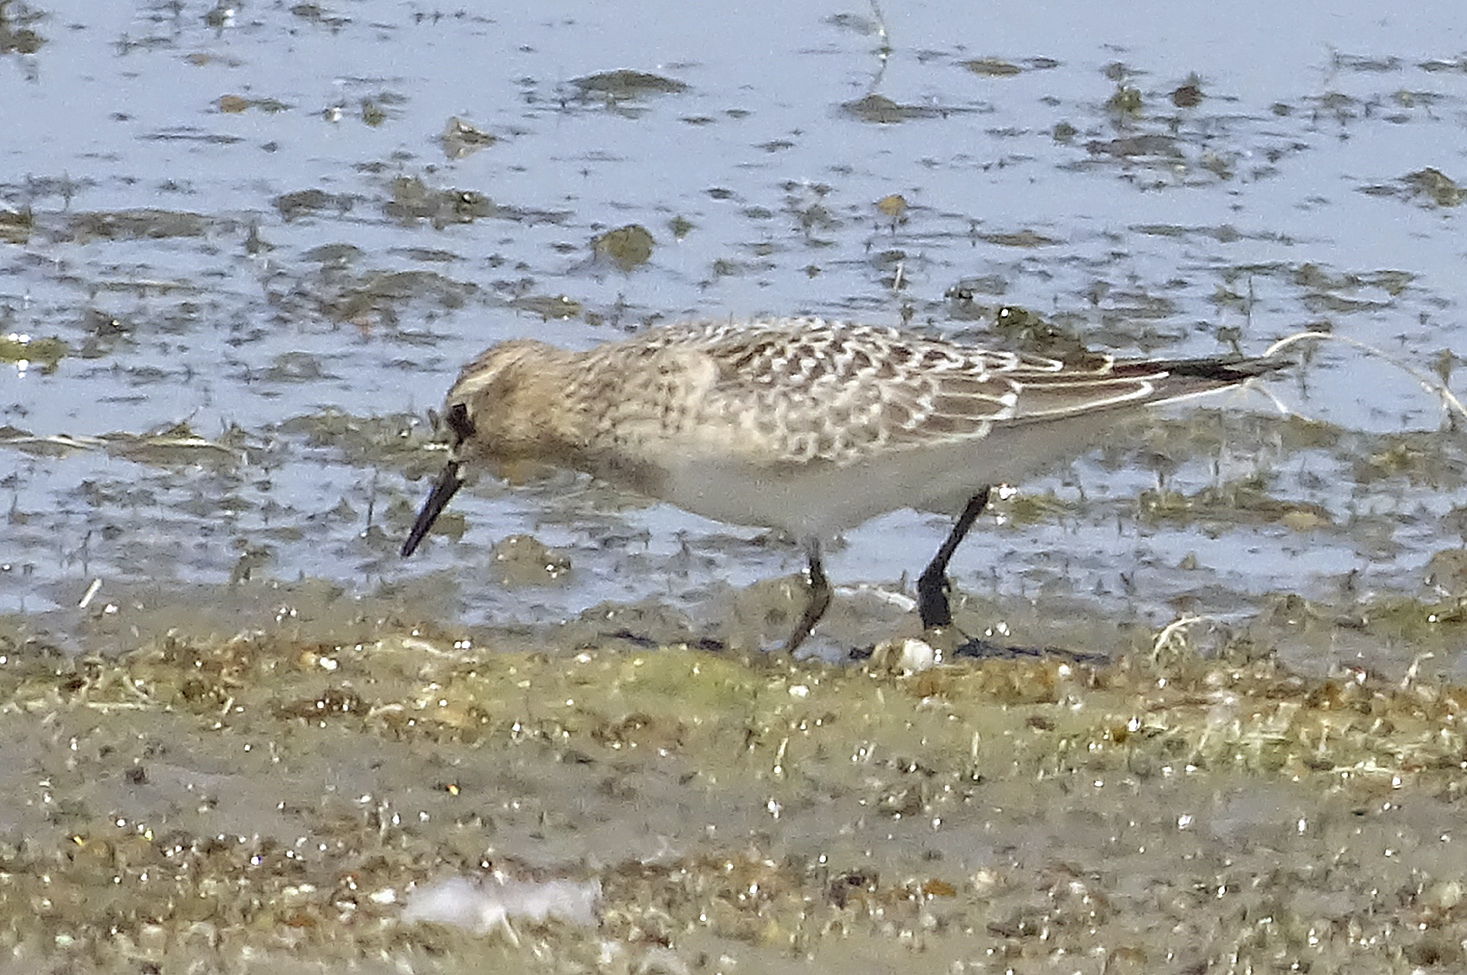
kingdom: Animalia
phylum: Chordata
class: Aves
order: Charadriiformes
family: Scolopacidae
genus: Calidris
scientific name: Calidris bairdii
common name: Baird's sandpiper
